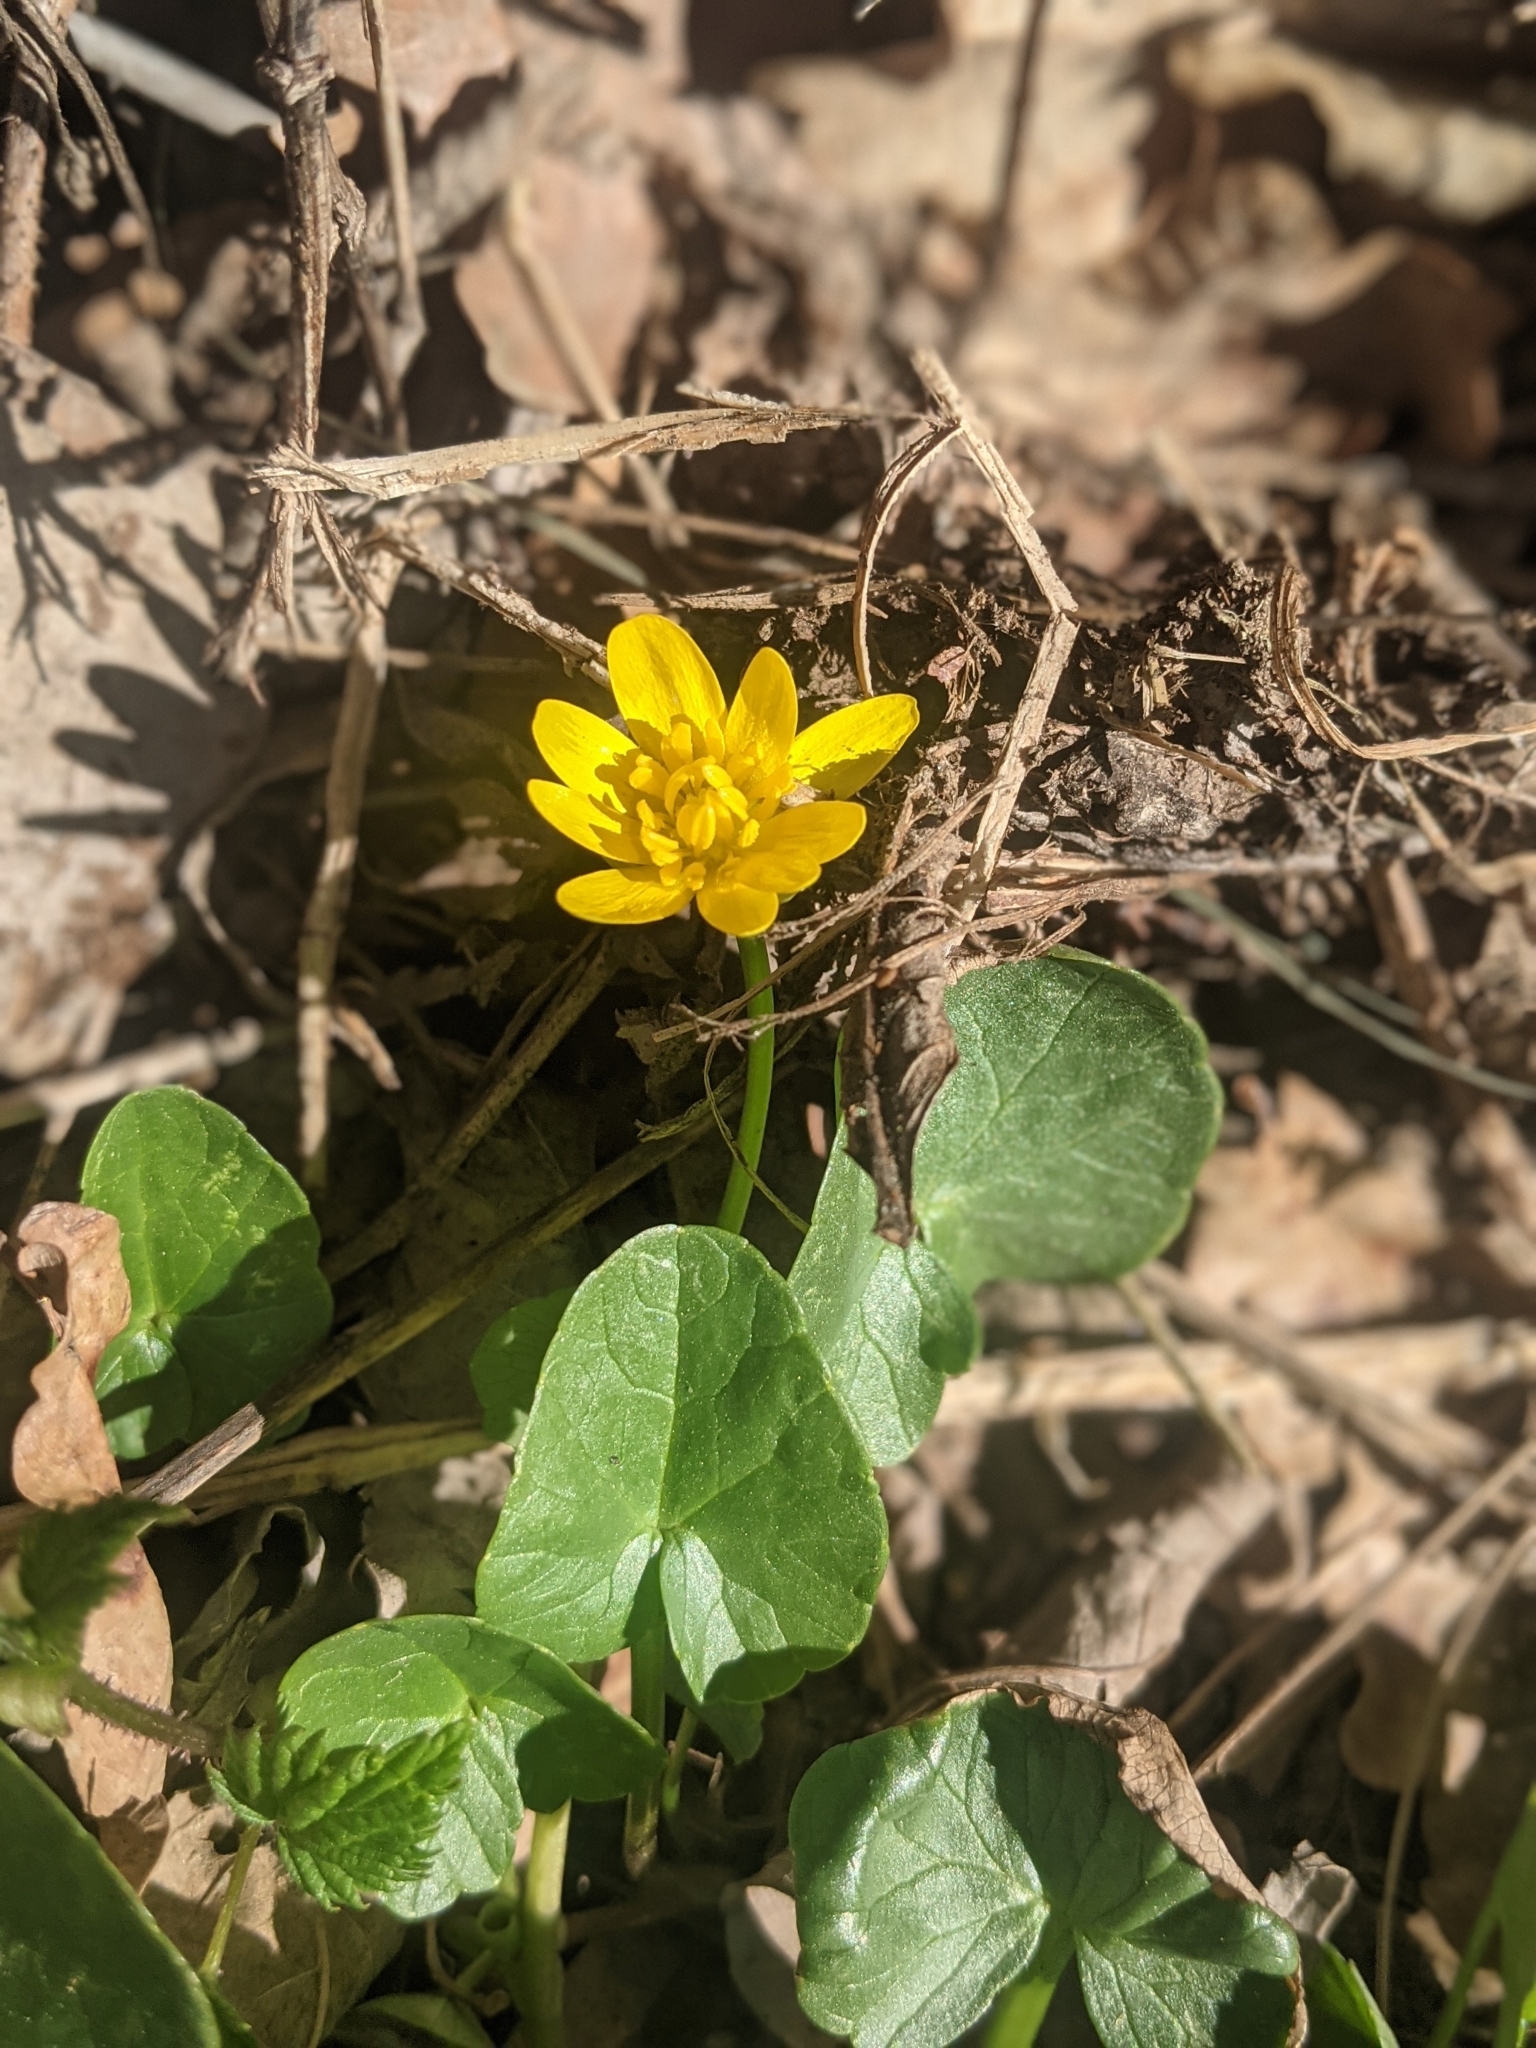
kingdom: Plantae
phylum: Tracheophyta
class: Magnoliopsida
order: Ranunculales
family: Ranunculaceae
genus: Ficaria
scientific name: Ficaria verna
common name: Lesser celandine
